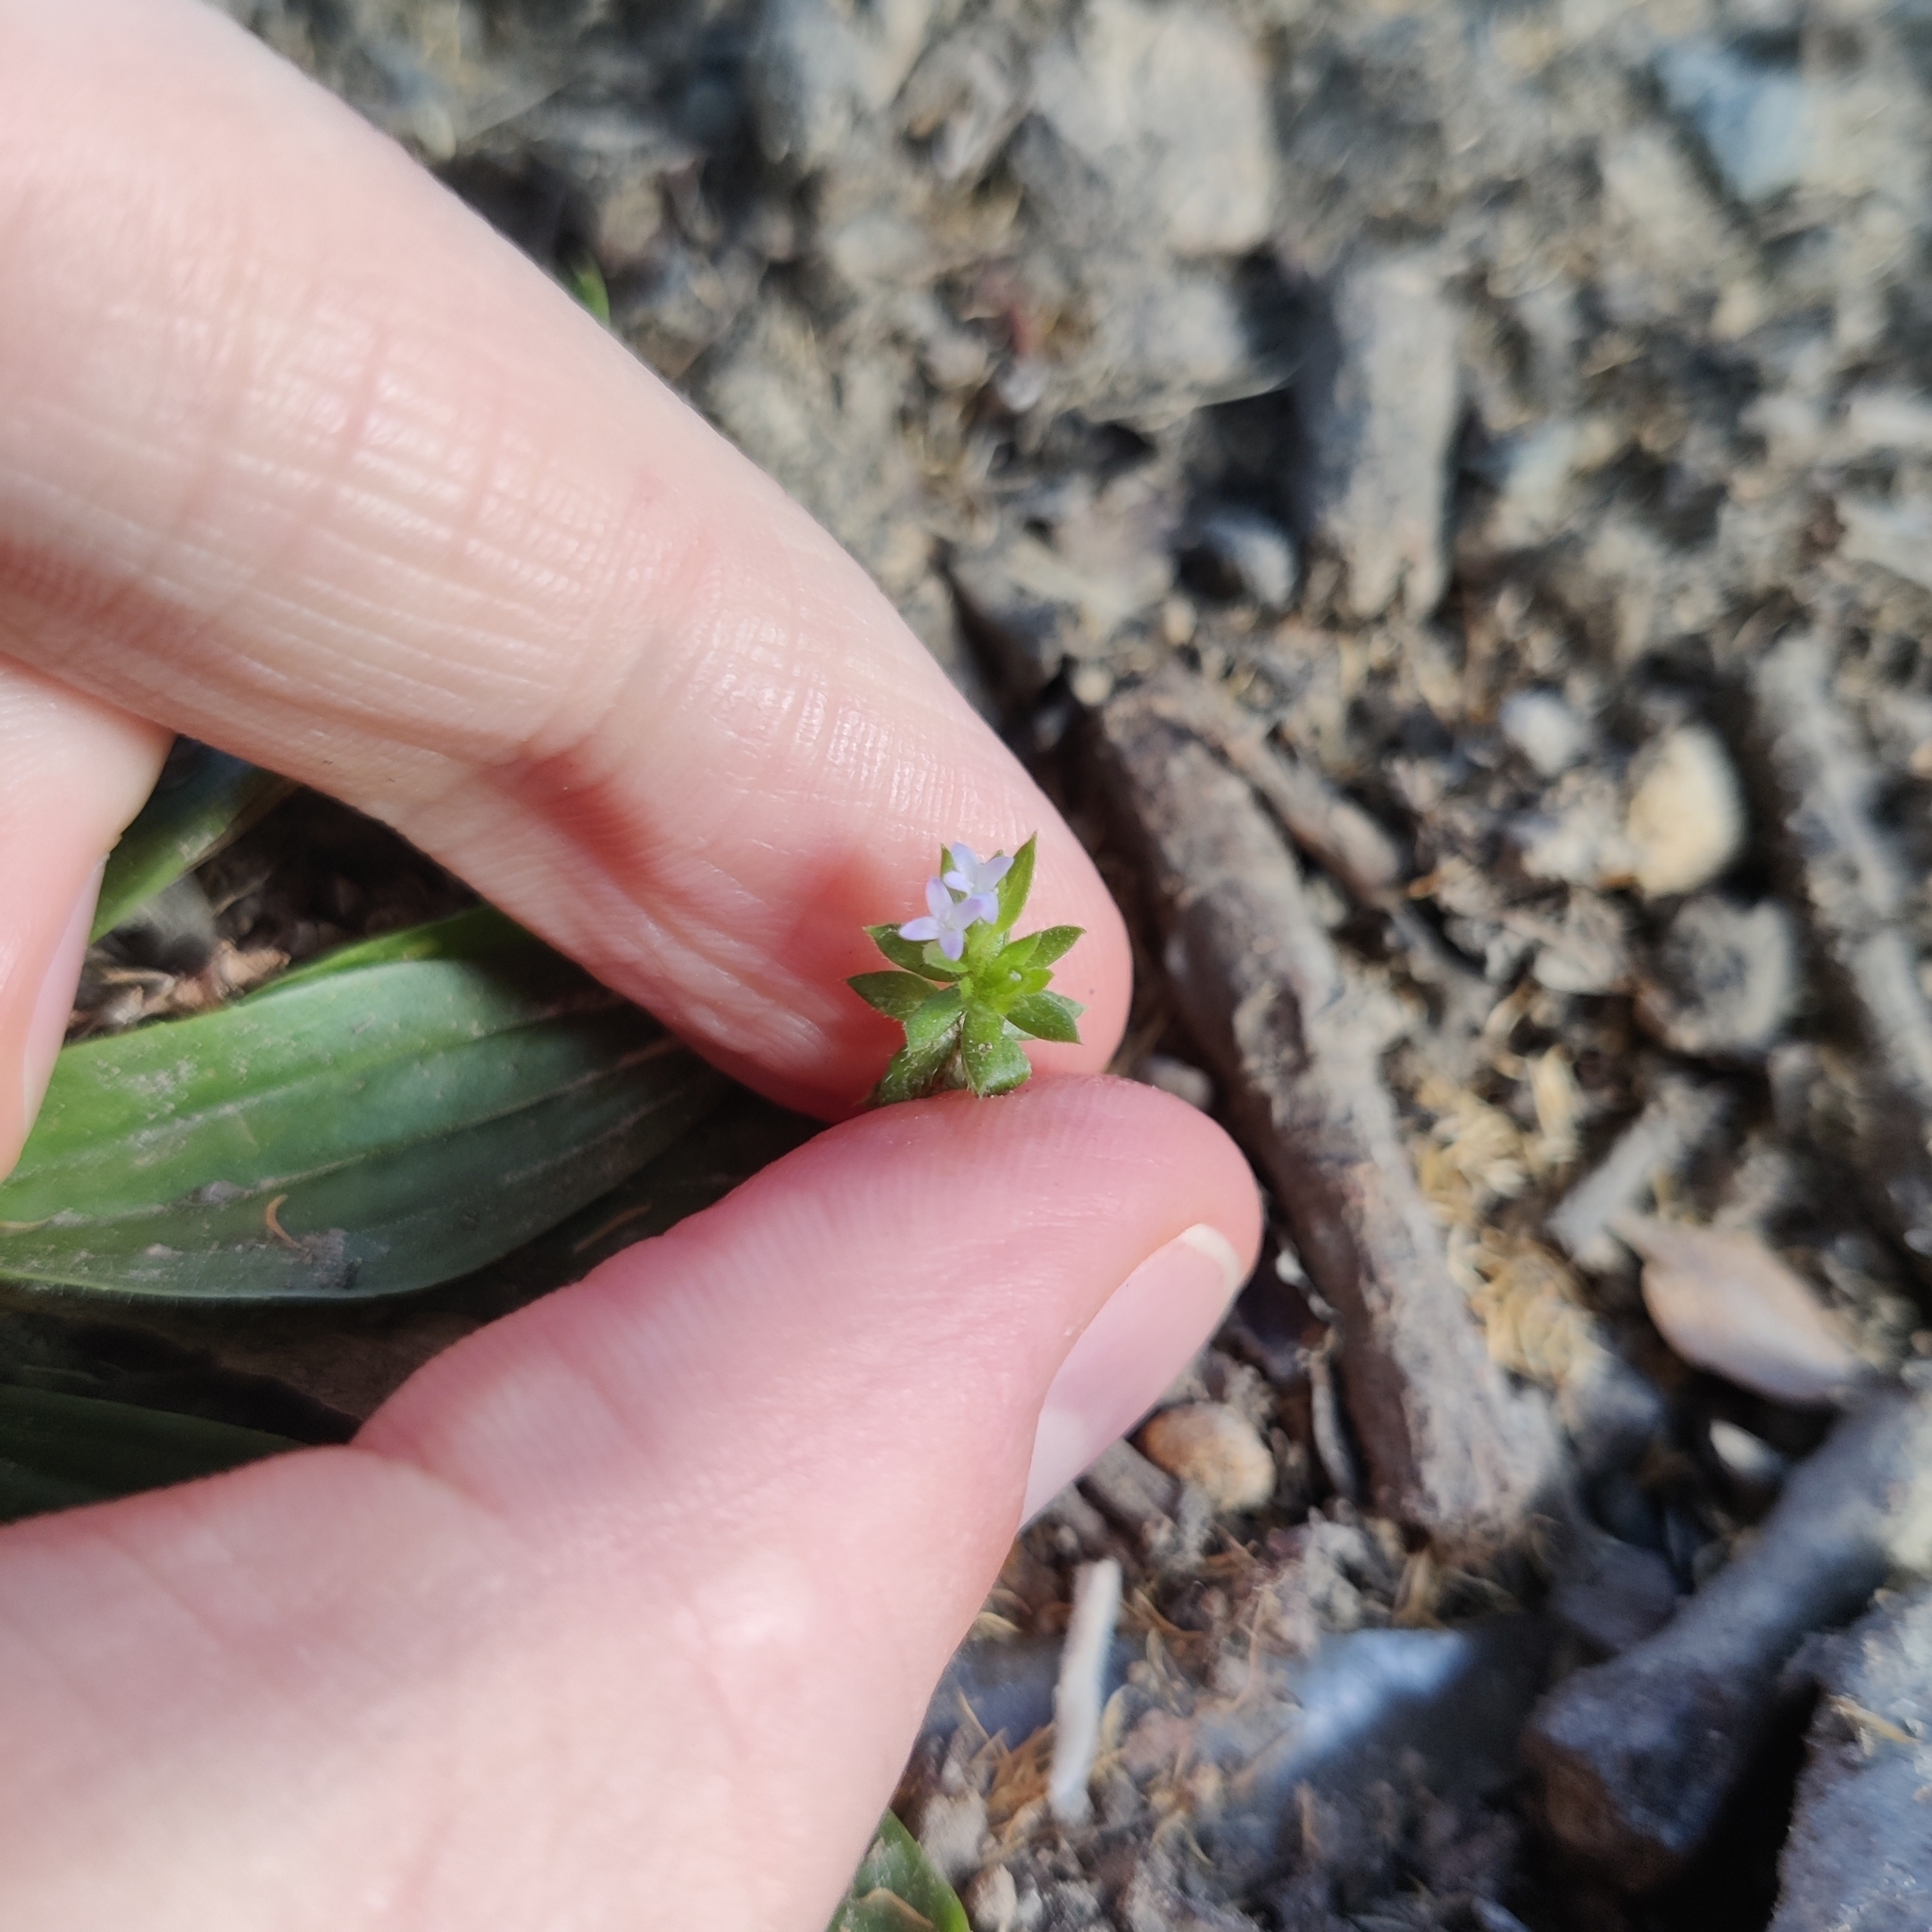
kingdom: Plantae
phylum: Tracheophyta
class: Magnoliopsida
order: Gentianales
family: Rubiaceae
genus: Sherardia
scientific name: Sherardia arvensis
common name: Field madder
